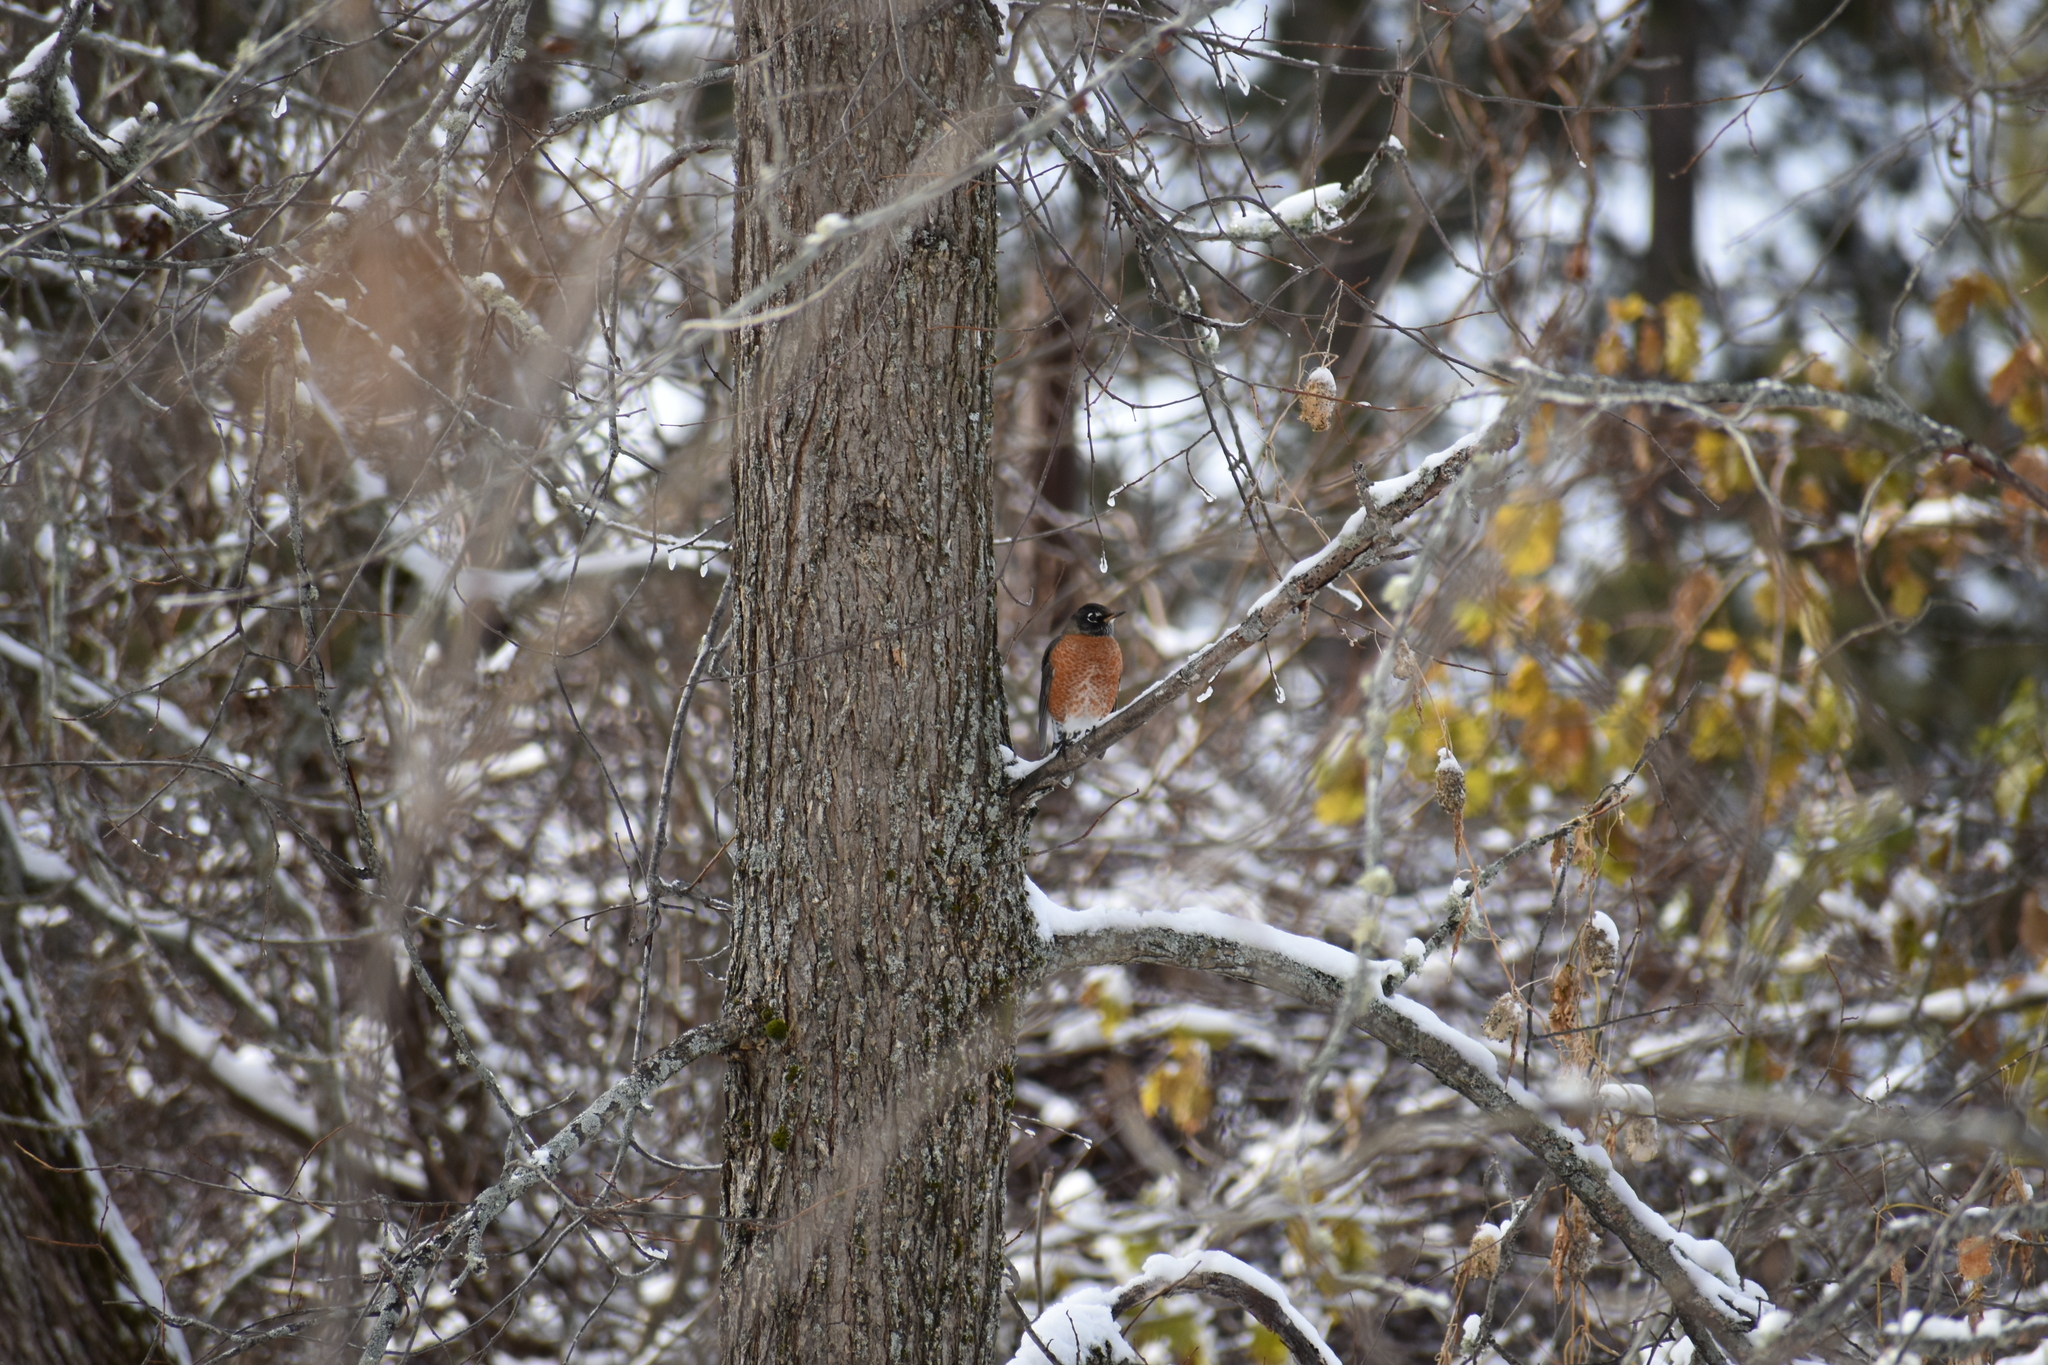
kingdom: Animalia
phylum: Chordata
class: Aves
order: Passeriformes
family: Turdidae
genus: Turdus
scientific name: Turdus migratorius
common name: American robin
